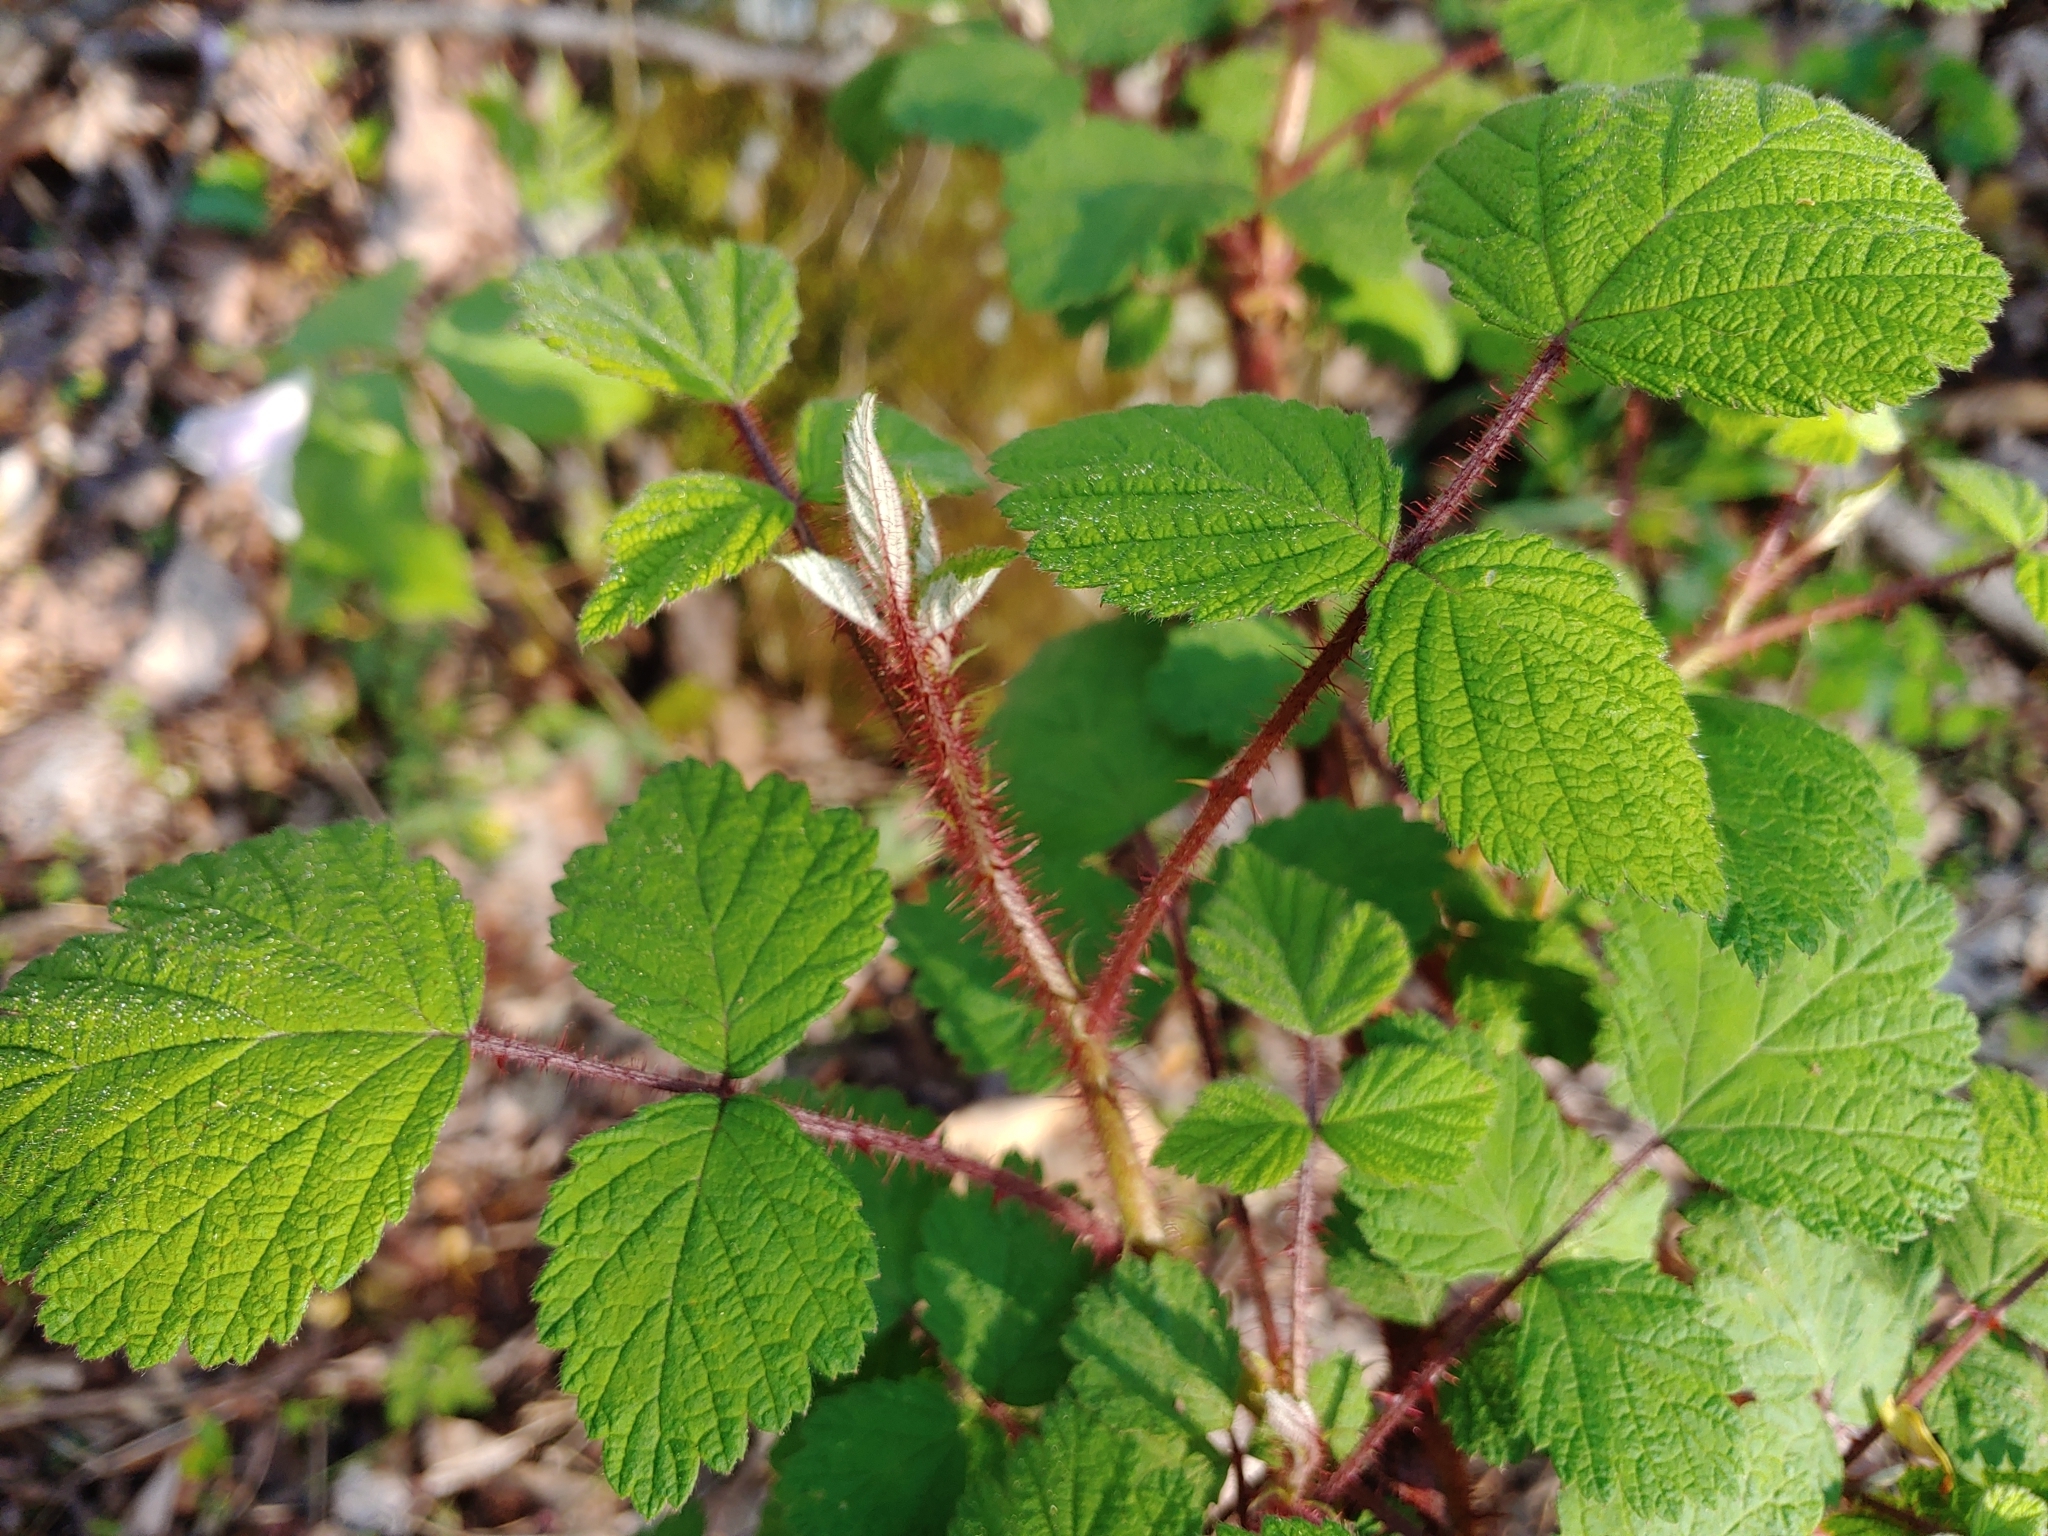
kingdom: Plantae
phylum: Tracheophyta
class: Magnoliopsida
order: Rosales
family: Rosaceae
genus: Rubus
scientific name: Rubus phoenicolasius
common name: Japanese wineberry
